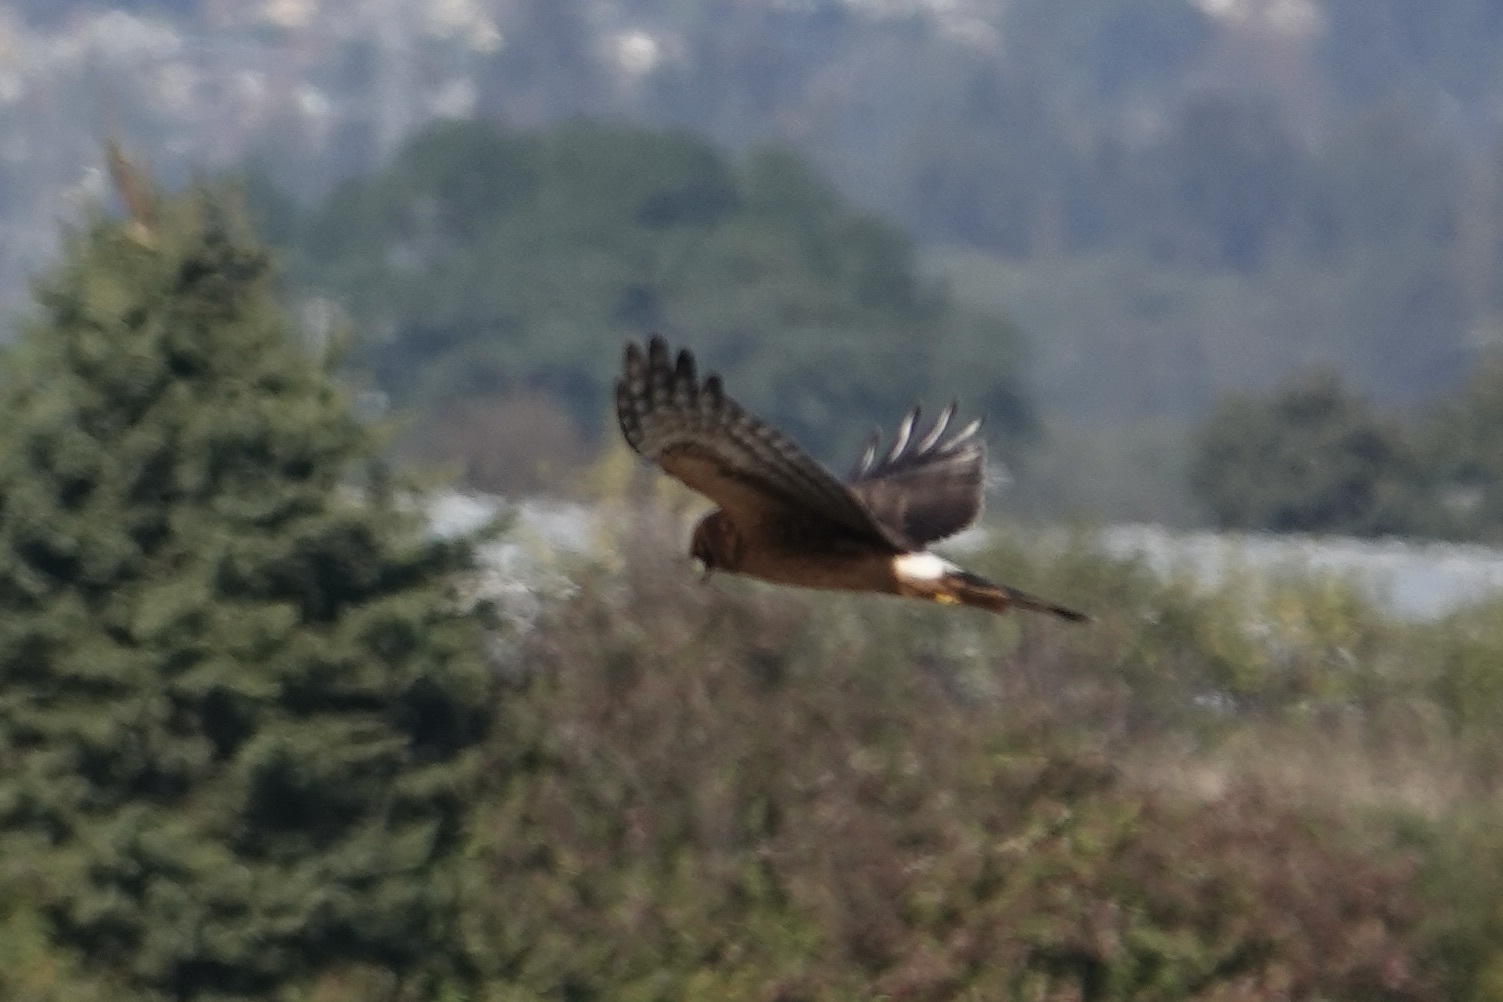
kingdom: Animalia
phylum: Chordata
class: Aves
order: Accipitriformes
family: Accipitridae
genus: Circus
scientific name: Circus cyaneus
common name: Hen harrier
